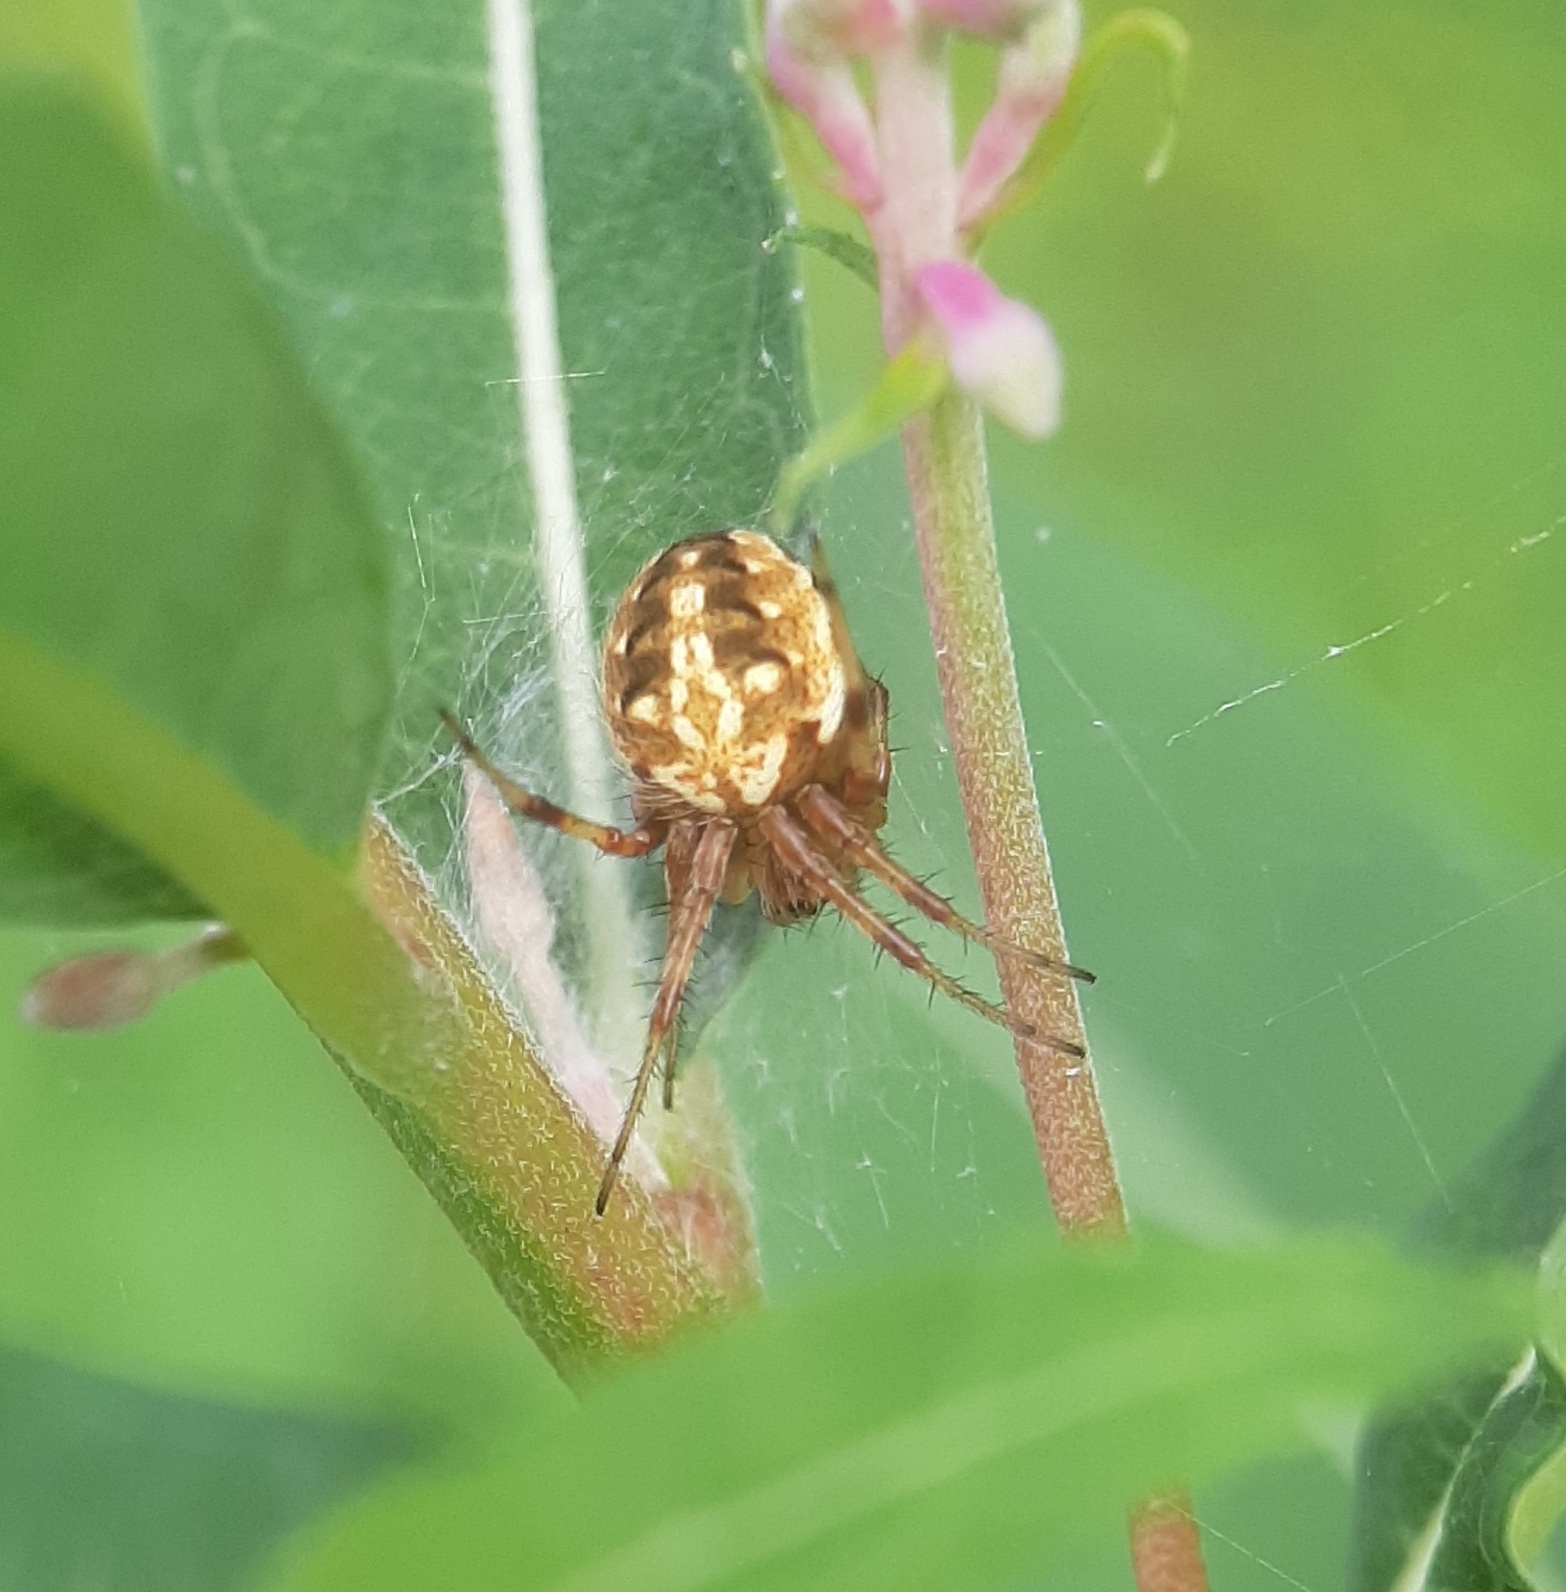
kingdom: Animalia
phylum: Arthropoda
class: Arachnida
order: Araneae
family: Araneidae
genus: Neoscona
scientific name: Neoscona arabesca
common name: Orb weavers
